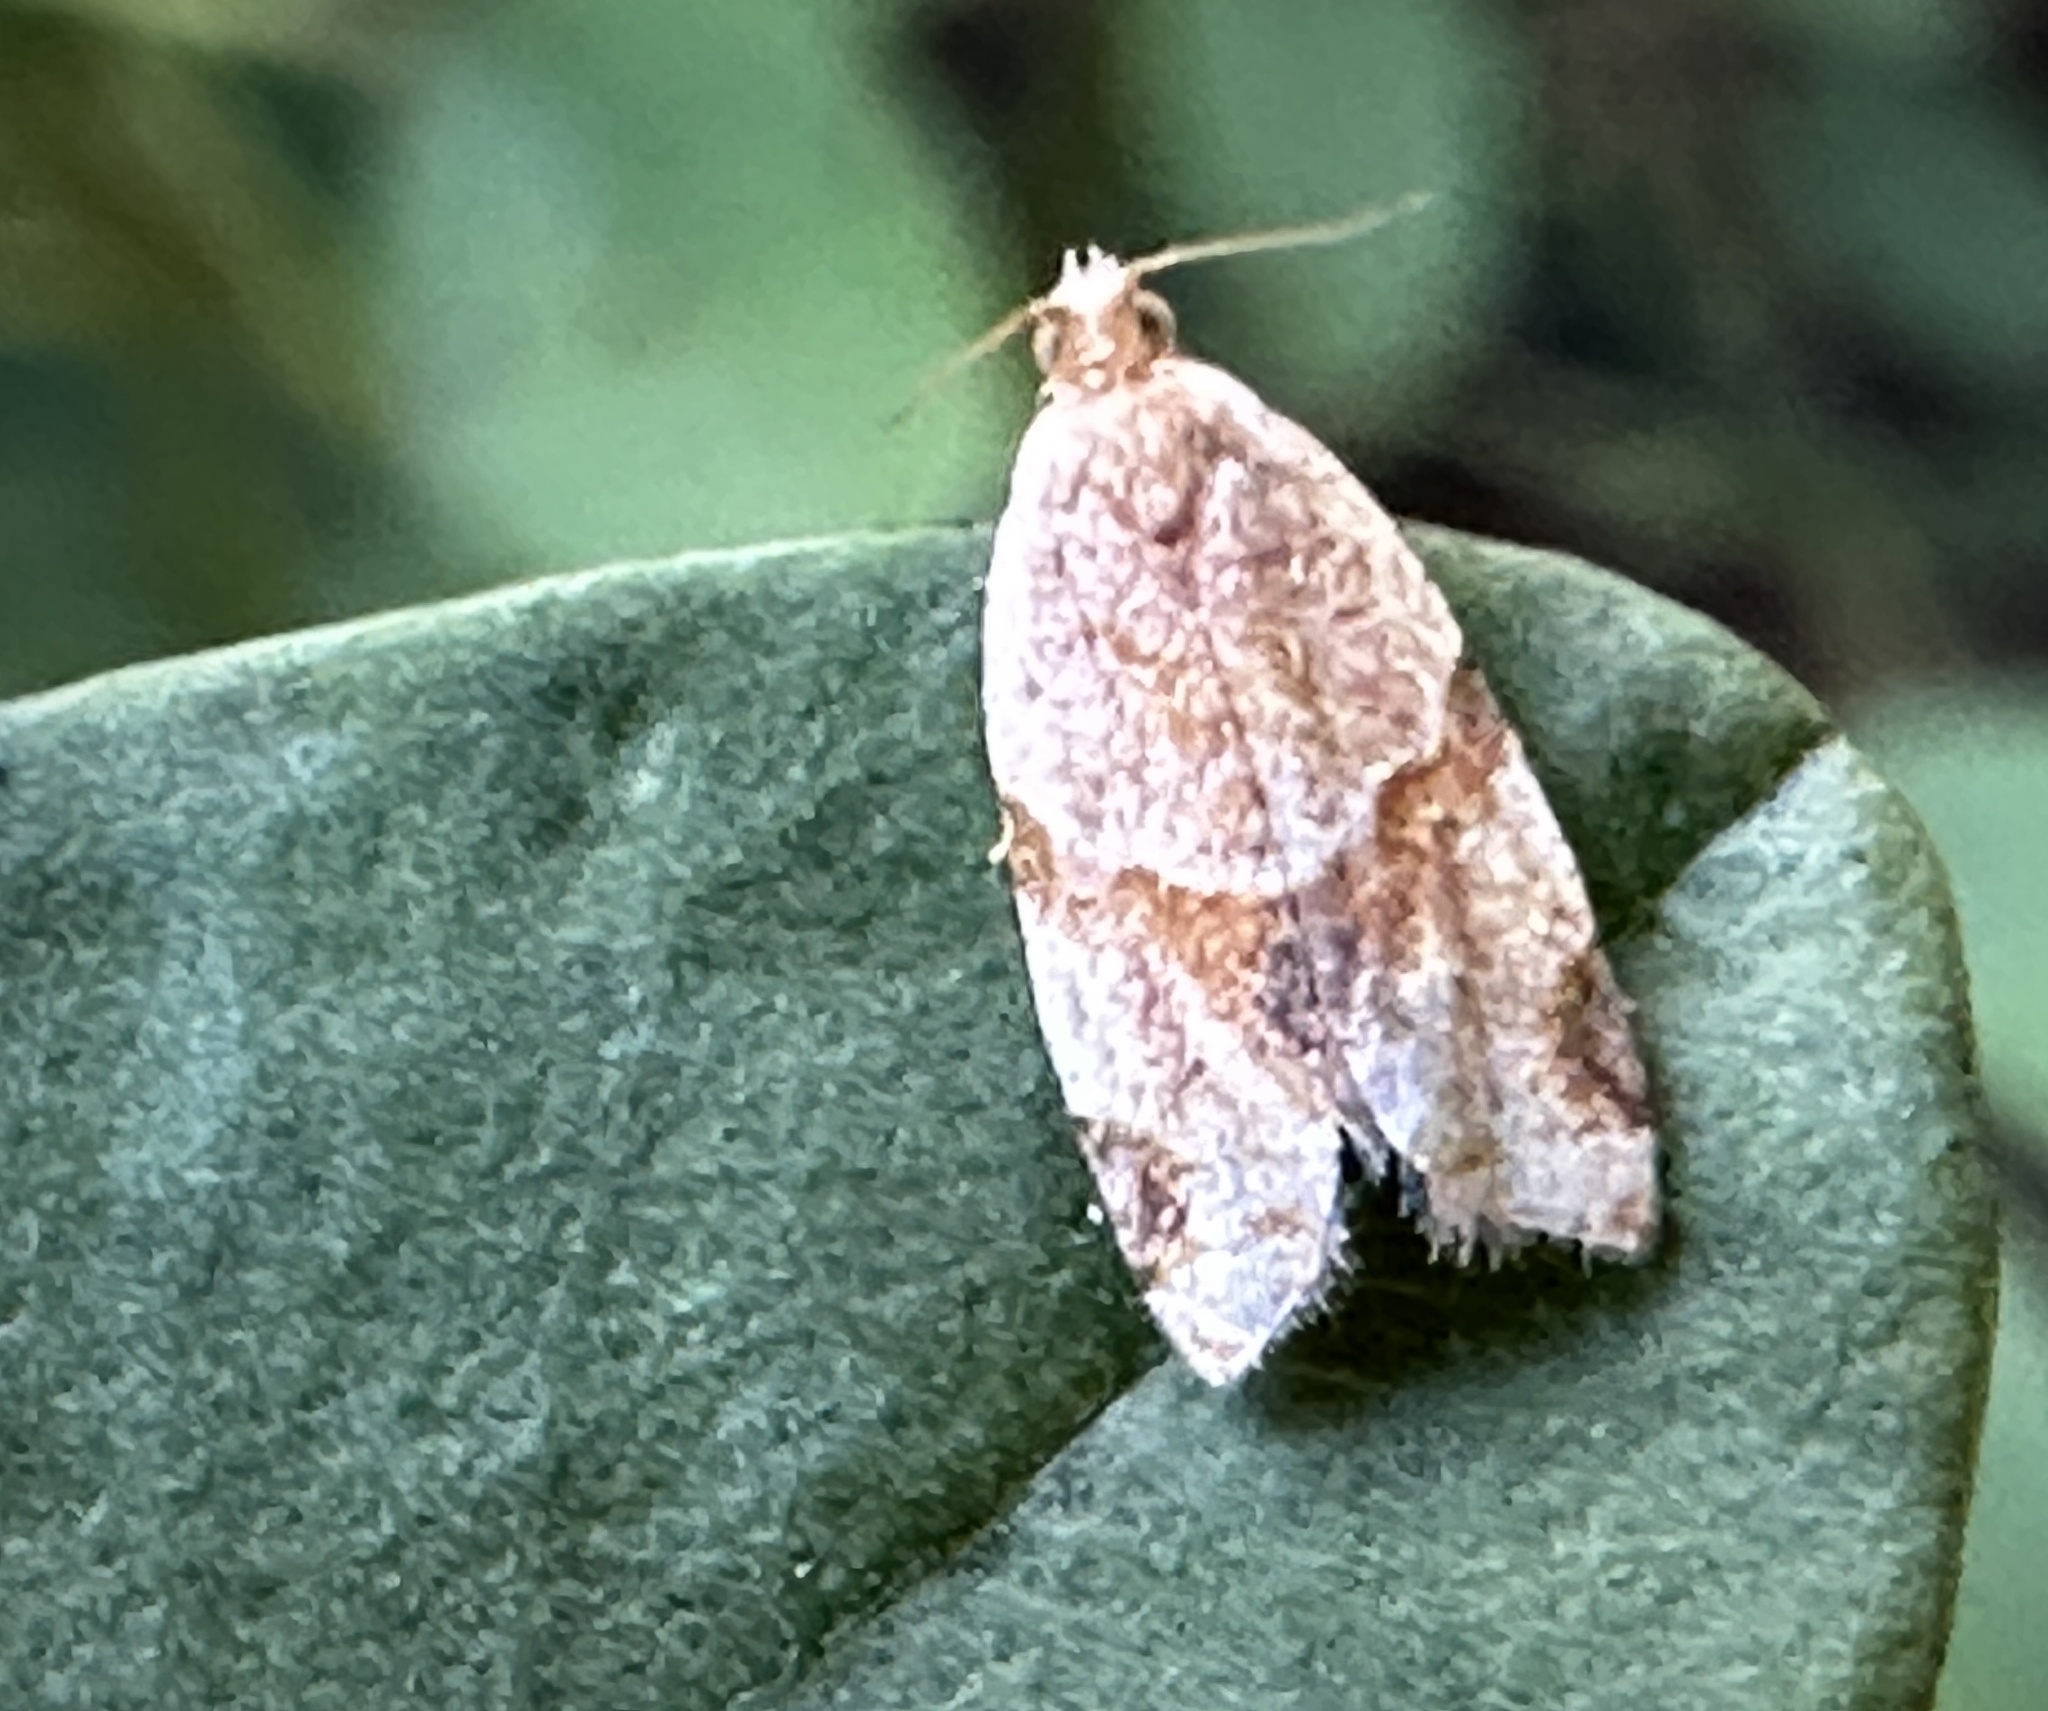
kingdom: Animalia
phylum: Arthropoda
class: Insecta
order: Lepidoptera
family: Tortricidae
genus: Clepsis
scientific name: Clepsis peritana
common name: Garden tortrix
